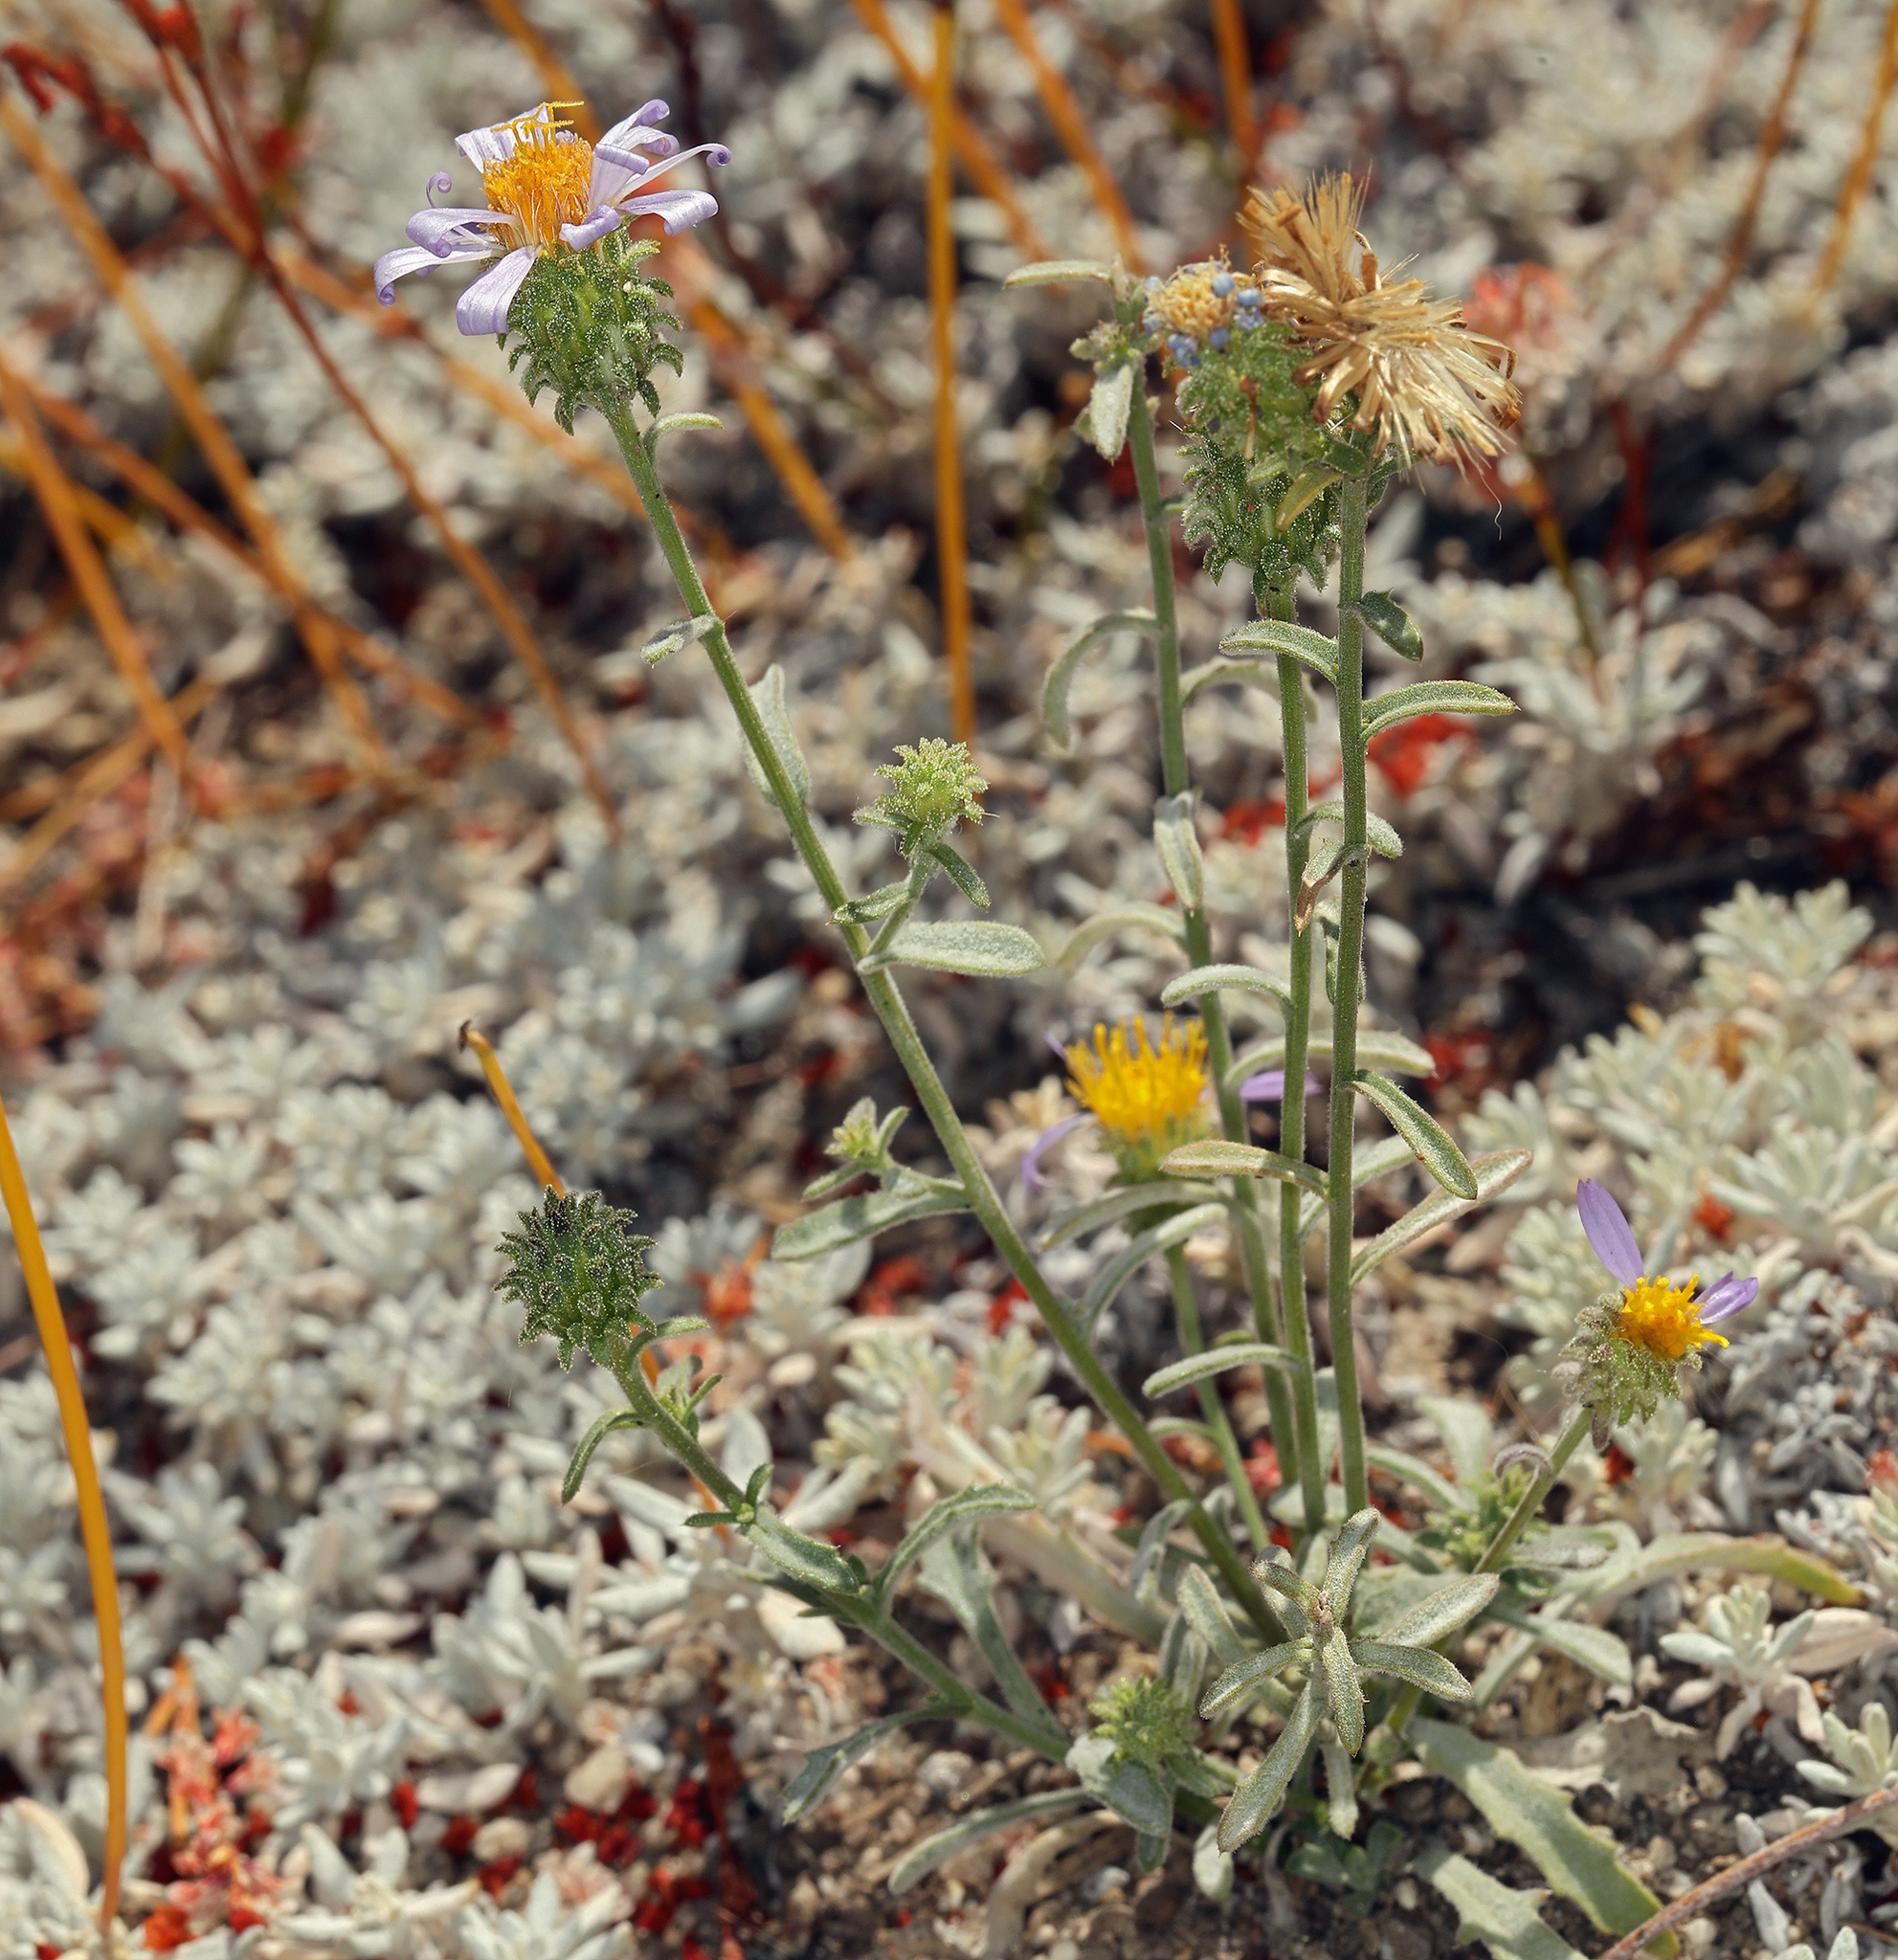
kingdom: Plantae
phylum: Tracheophyta
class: Magnoliopsida
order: Asterales
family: Asteraceae
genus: Dieteria
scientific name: Dieteria canescens
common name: Hoary-aster
